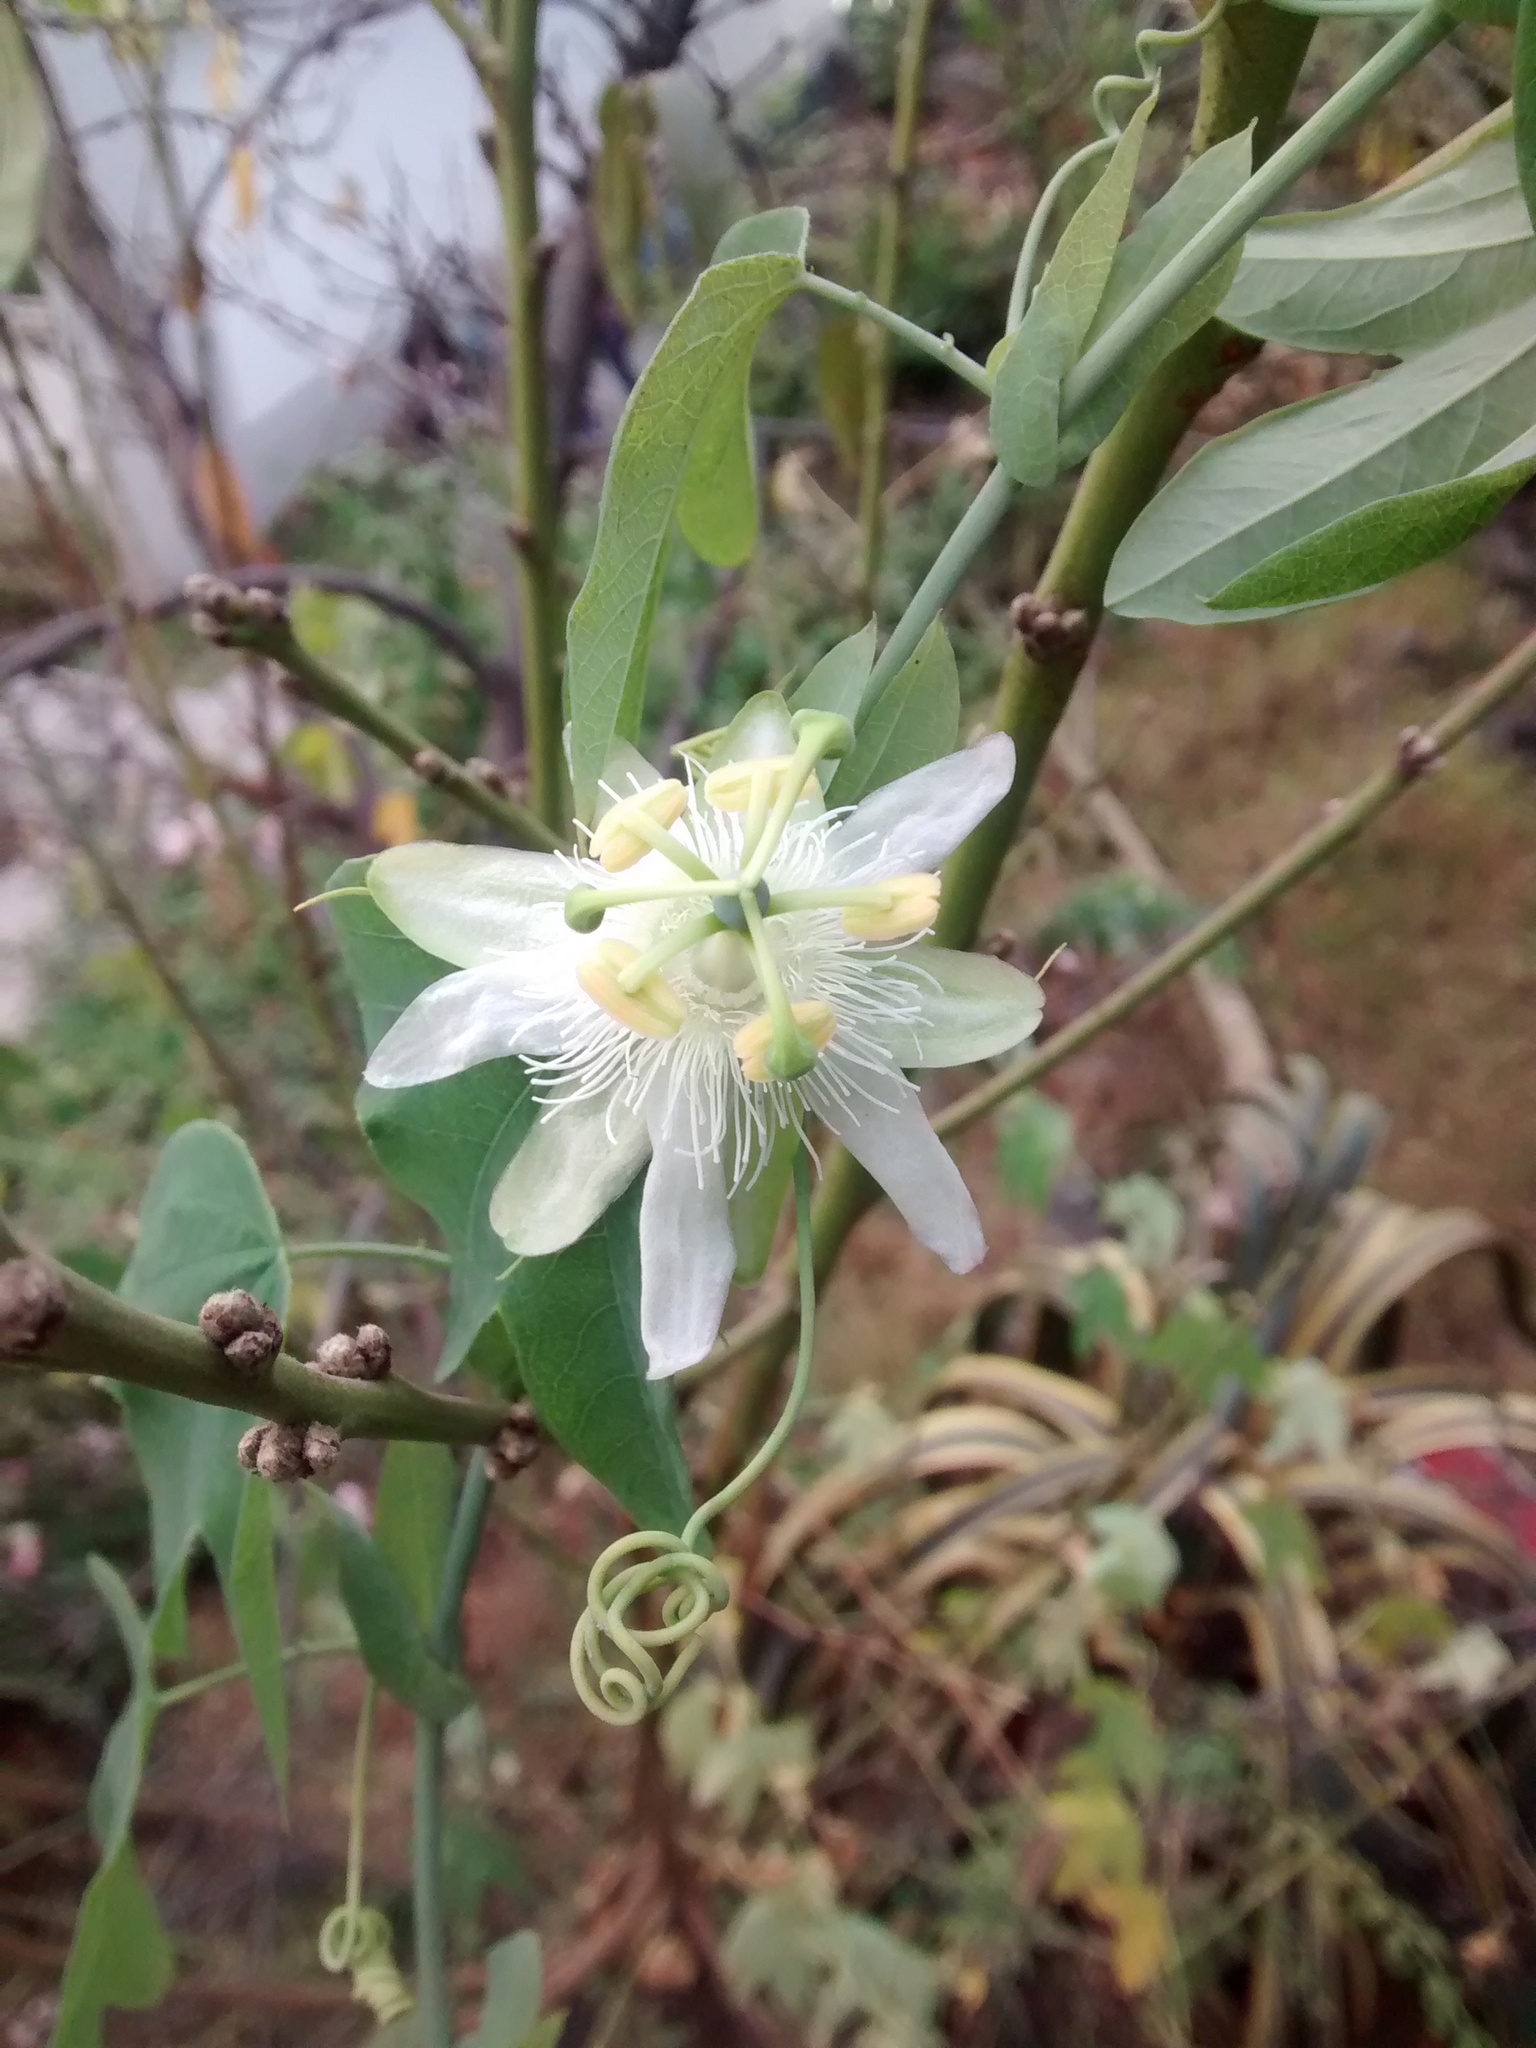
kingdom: Plantae
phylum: Tracheophyta
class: Magnoliopsida
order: Malpighiales
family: Passifloraceae
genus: Passiflora
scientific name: Passiflora subpeltata
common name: White passionflower
